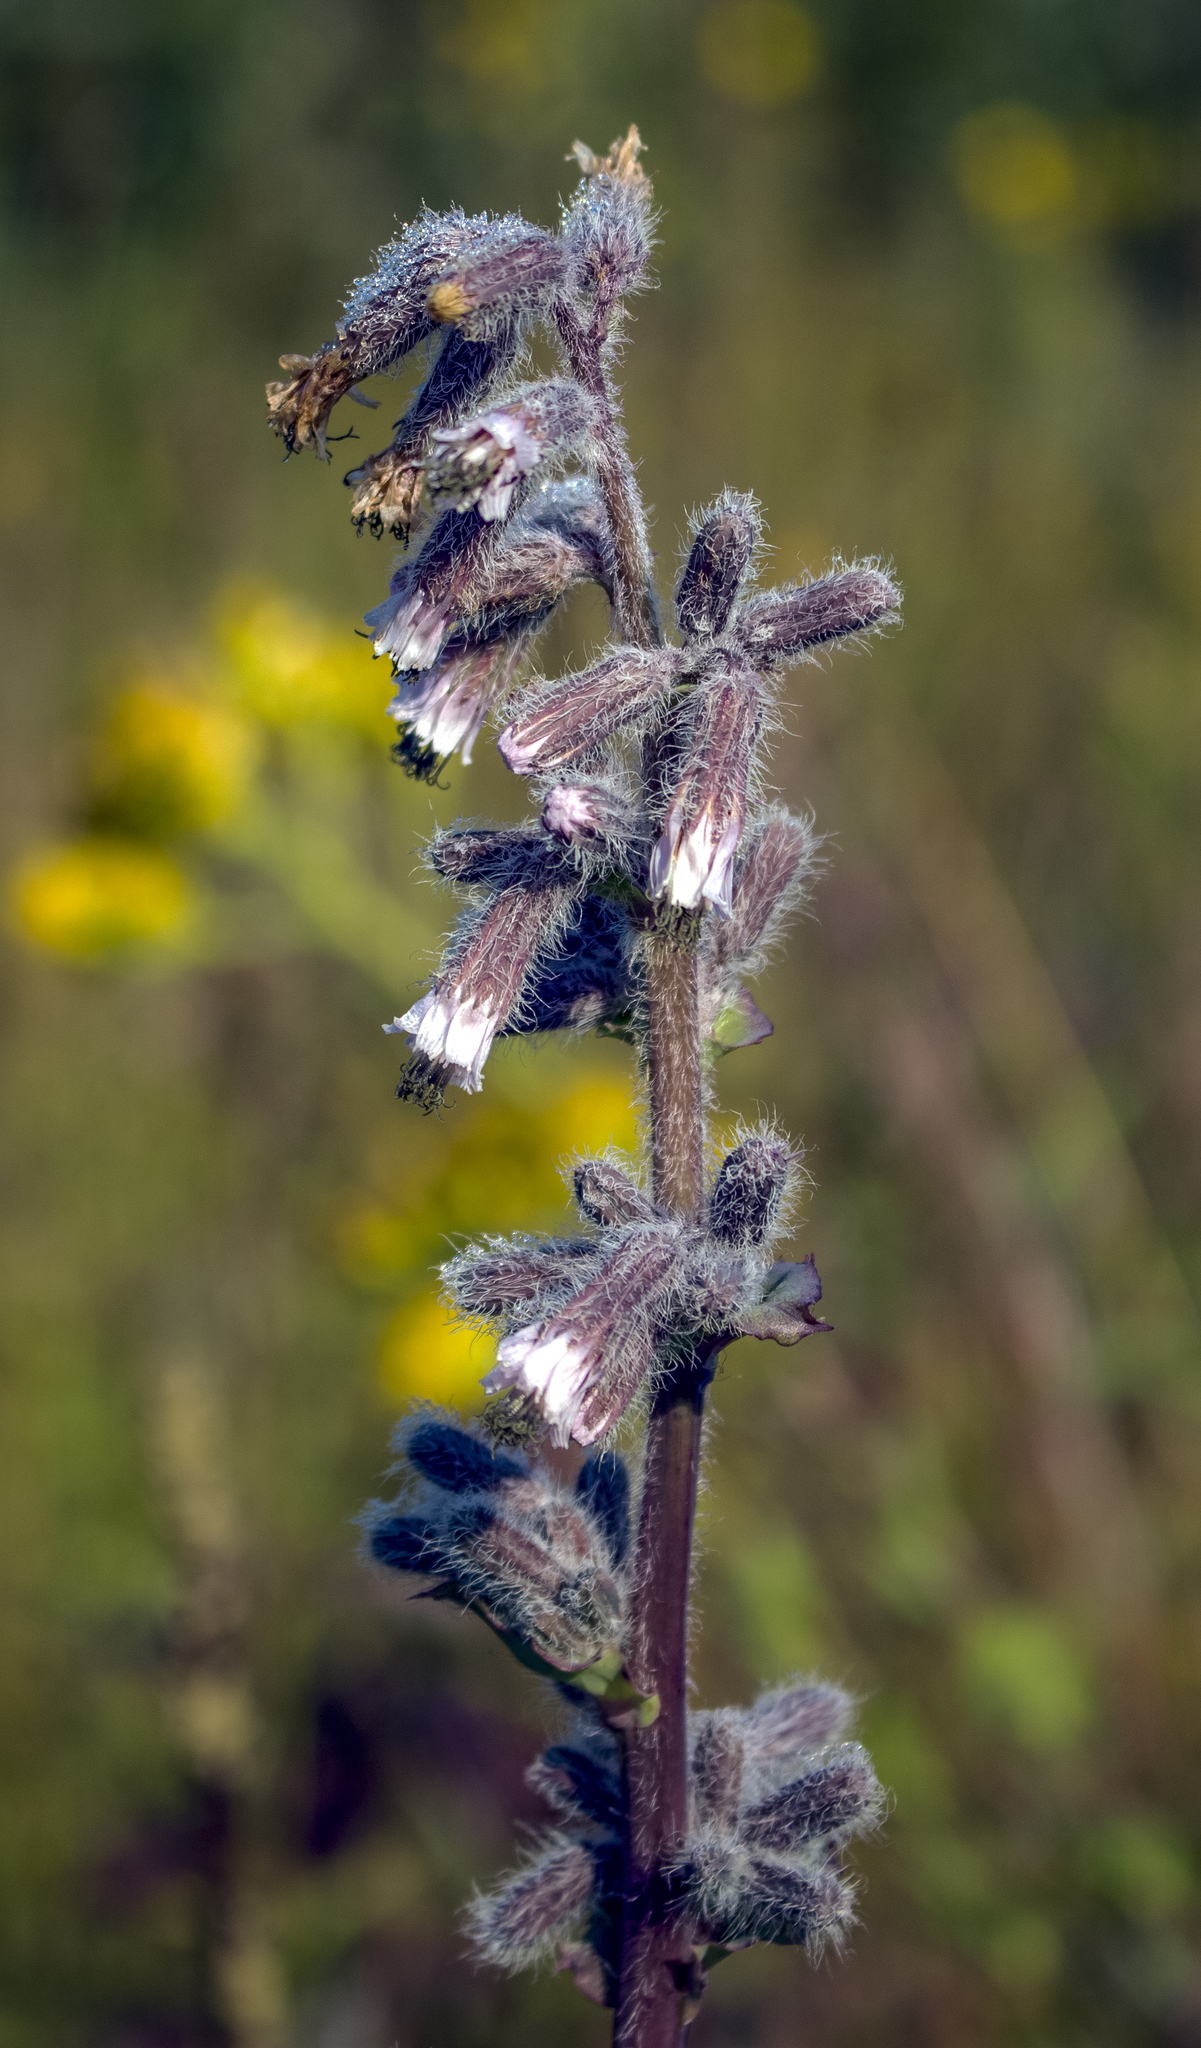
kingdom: Plantae
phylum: Tracheophyta
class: Magnoliopsida
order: Asterales
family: Asteraceae
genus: Nabalus
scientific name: Nabalus racemosus
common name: Glaucous white lettuce
